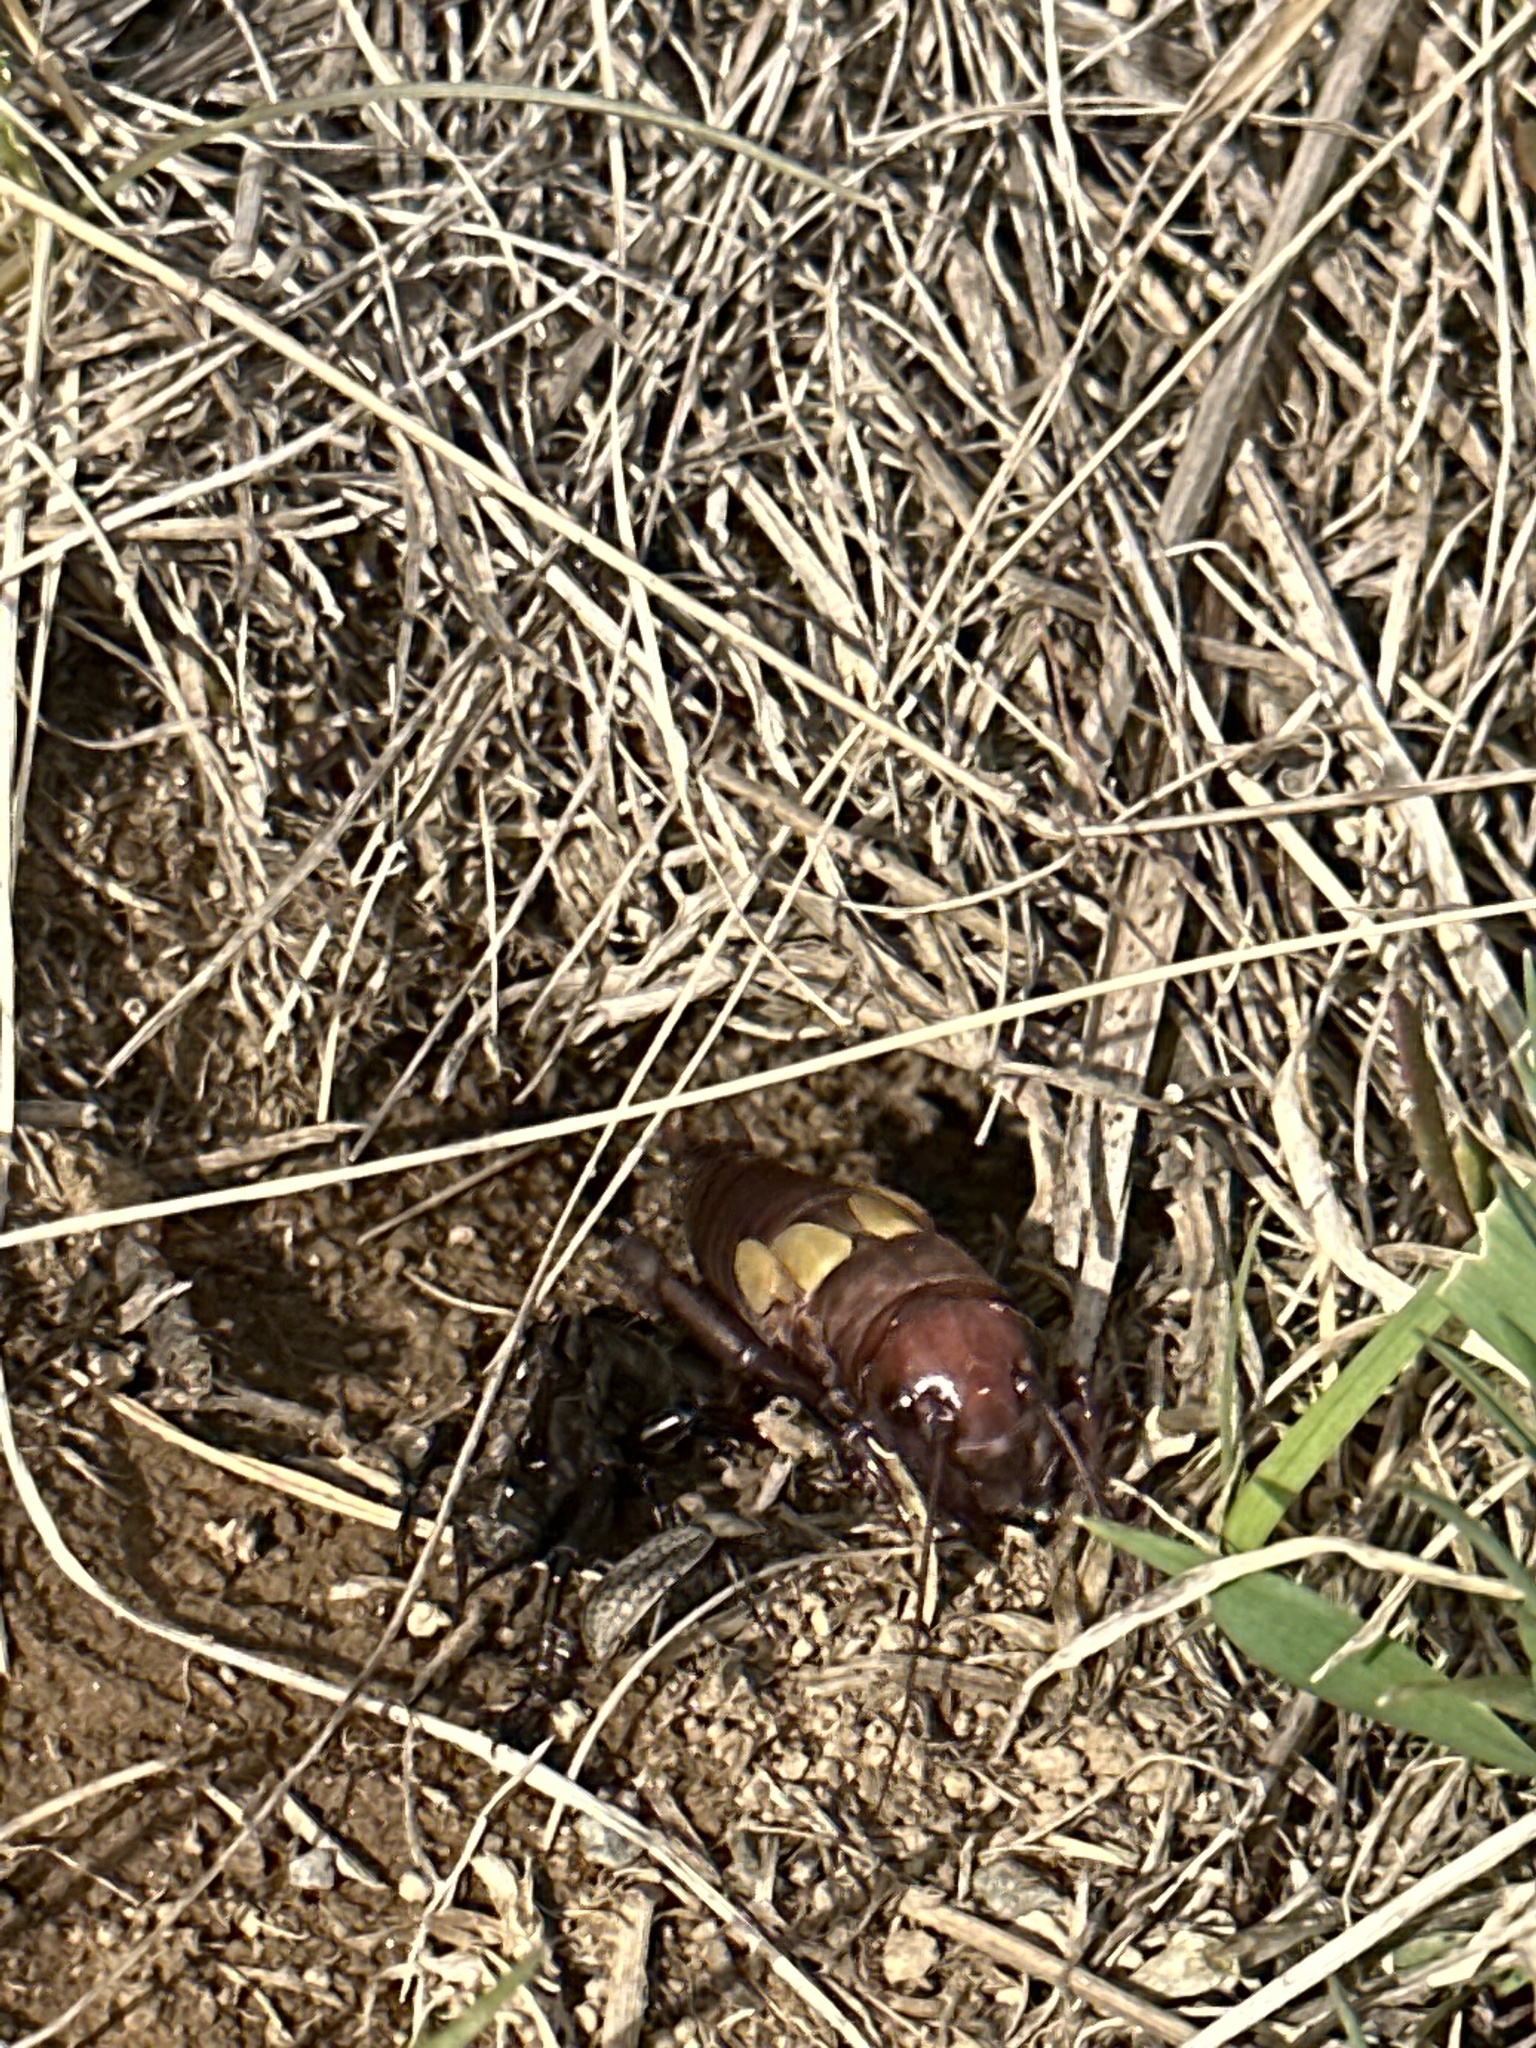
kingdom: Animalia
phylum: Arthropoda
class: Insecta
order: Orthoptera
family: Gryllidae
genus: Gryllus
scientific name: Gryllus campestris
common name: Field cricket
